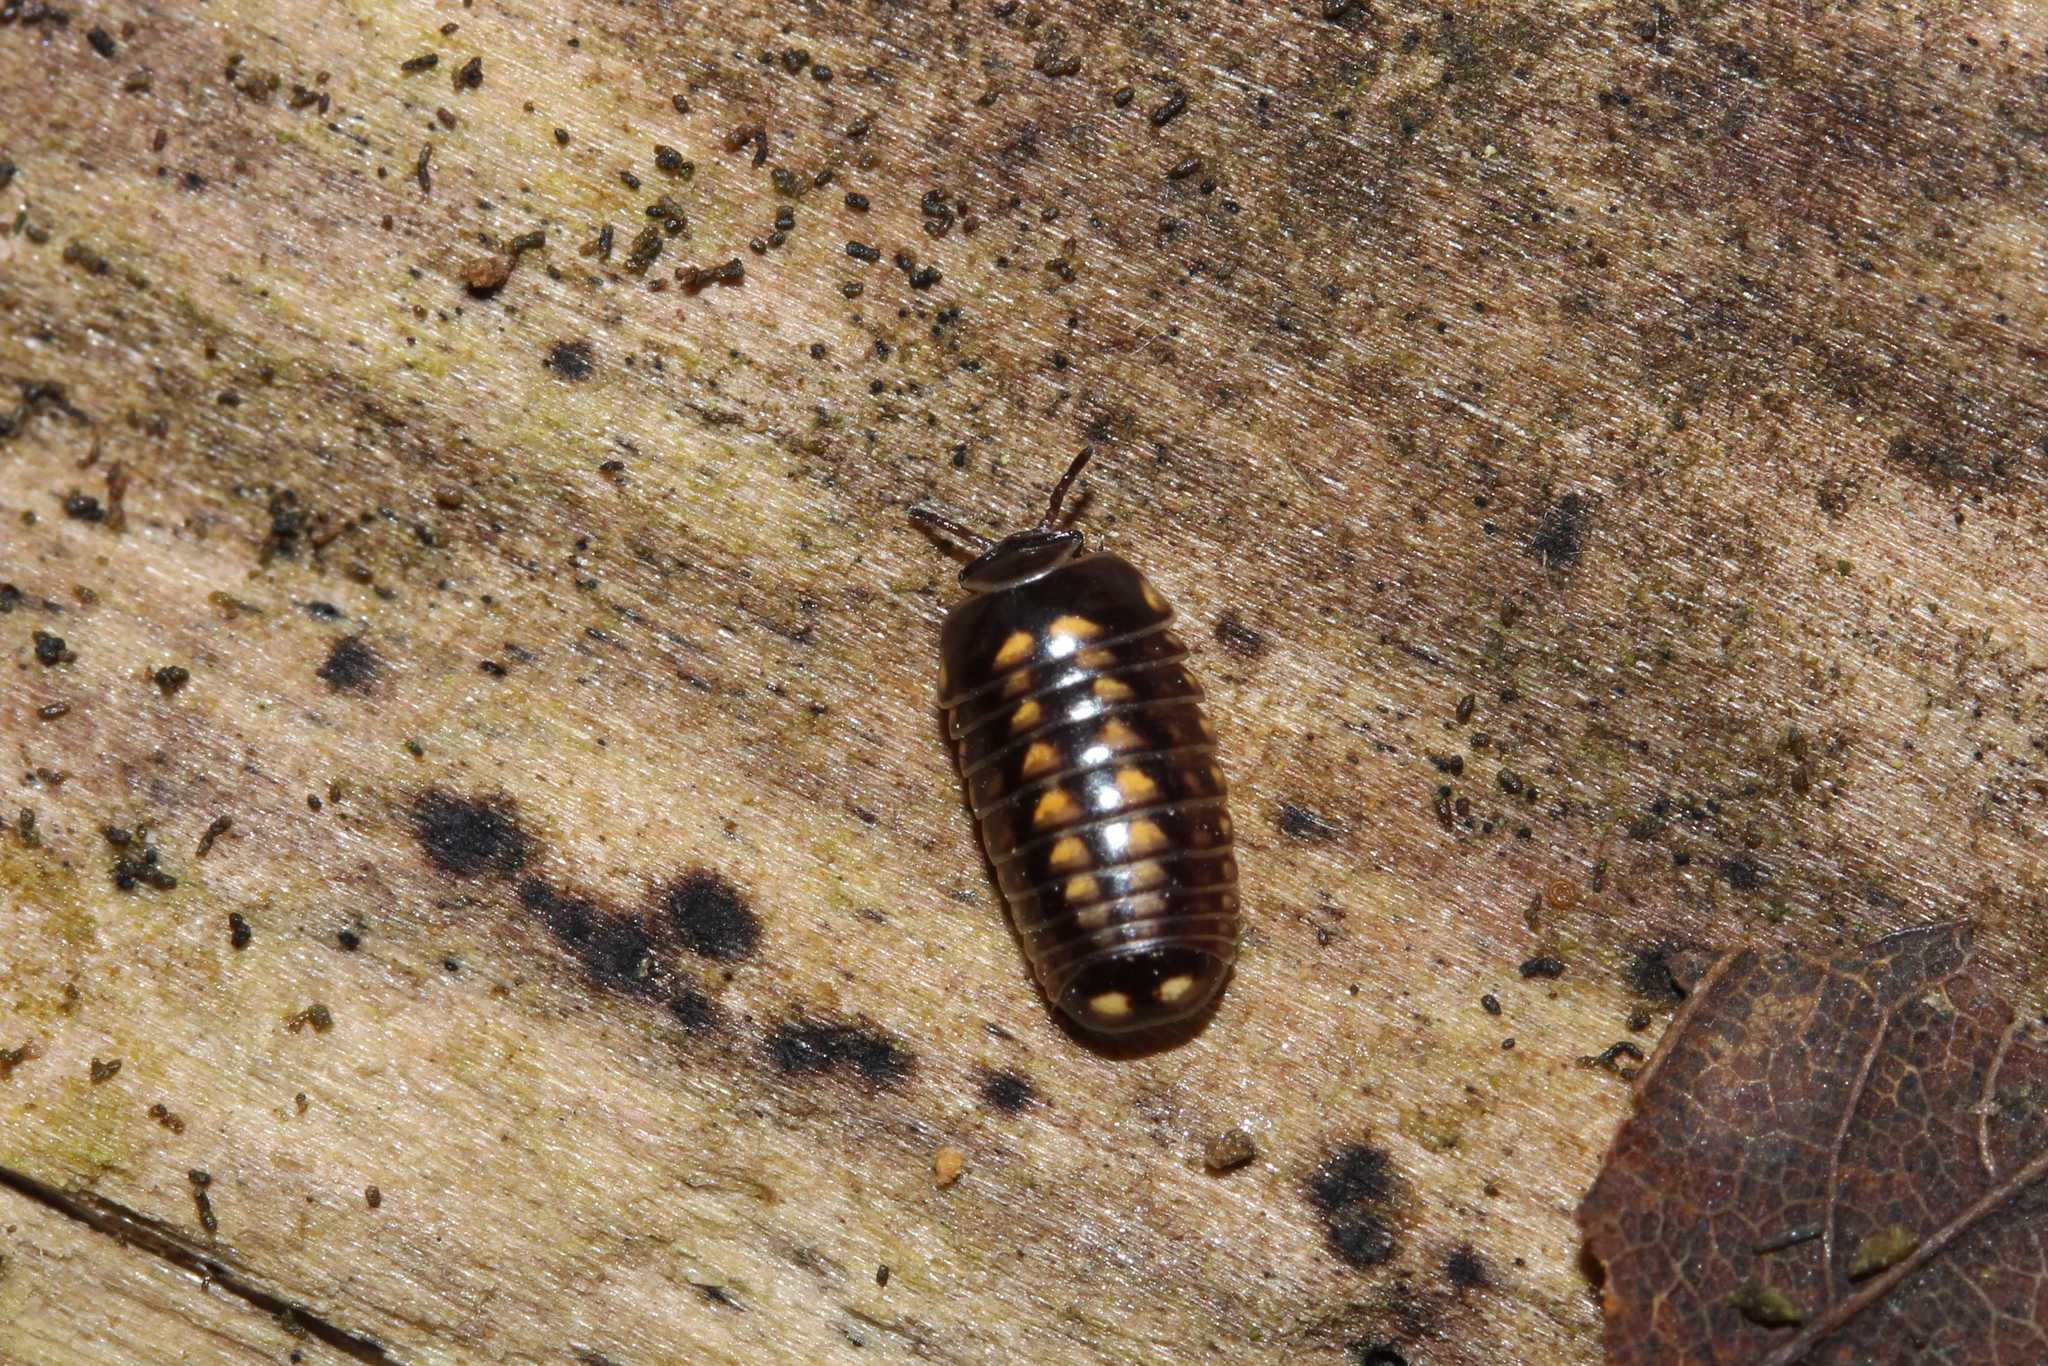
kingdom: Animalia
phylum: Arthropoda
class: Diplopoda
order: Glomerida
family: Glomeridae
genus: Glomeris
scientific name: Glomeris hexasticha
